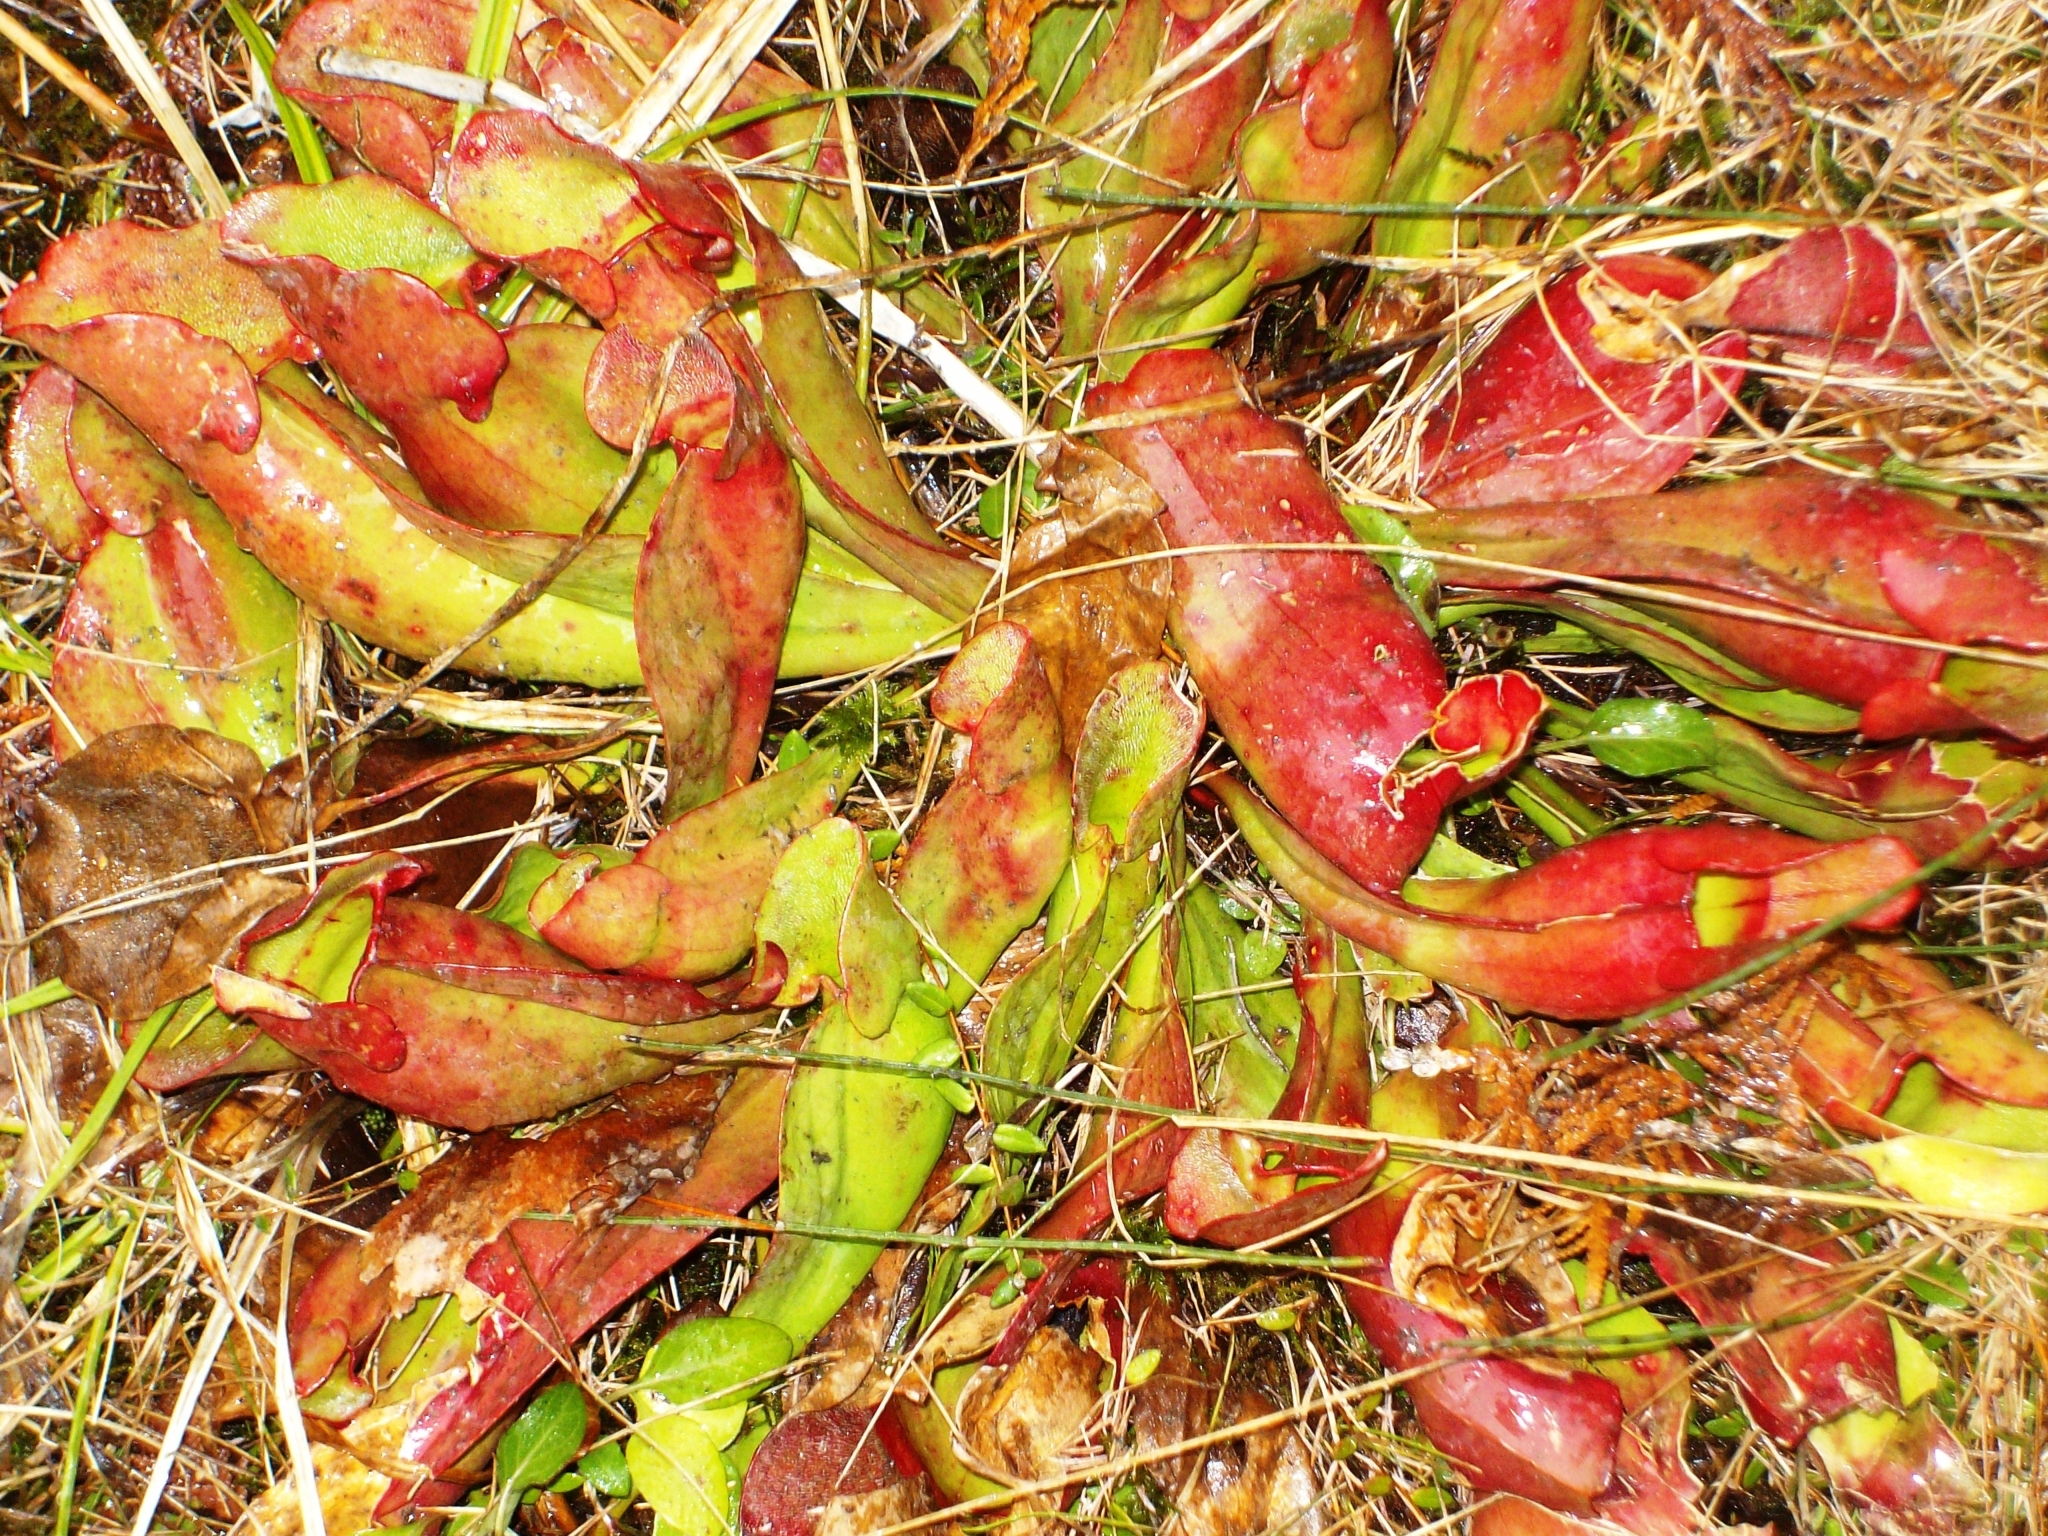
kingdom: Plantae
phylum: Tracheophyta
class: Magnoliopsida
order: Ericales
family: Sarraceniaceae
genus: Sarracenia
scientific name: Sarracenia purpurea
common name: Pitcherplant
